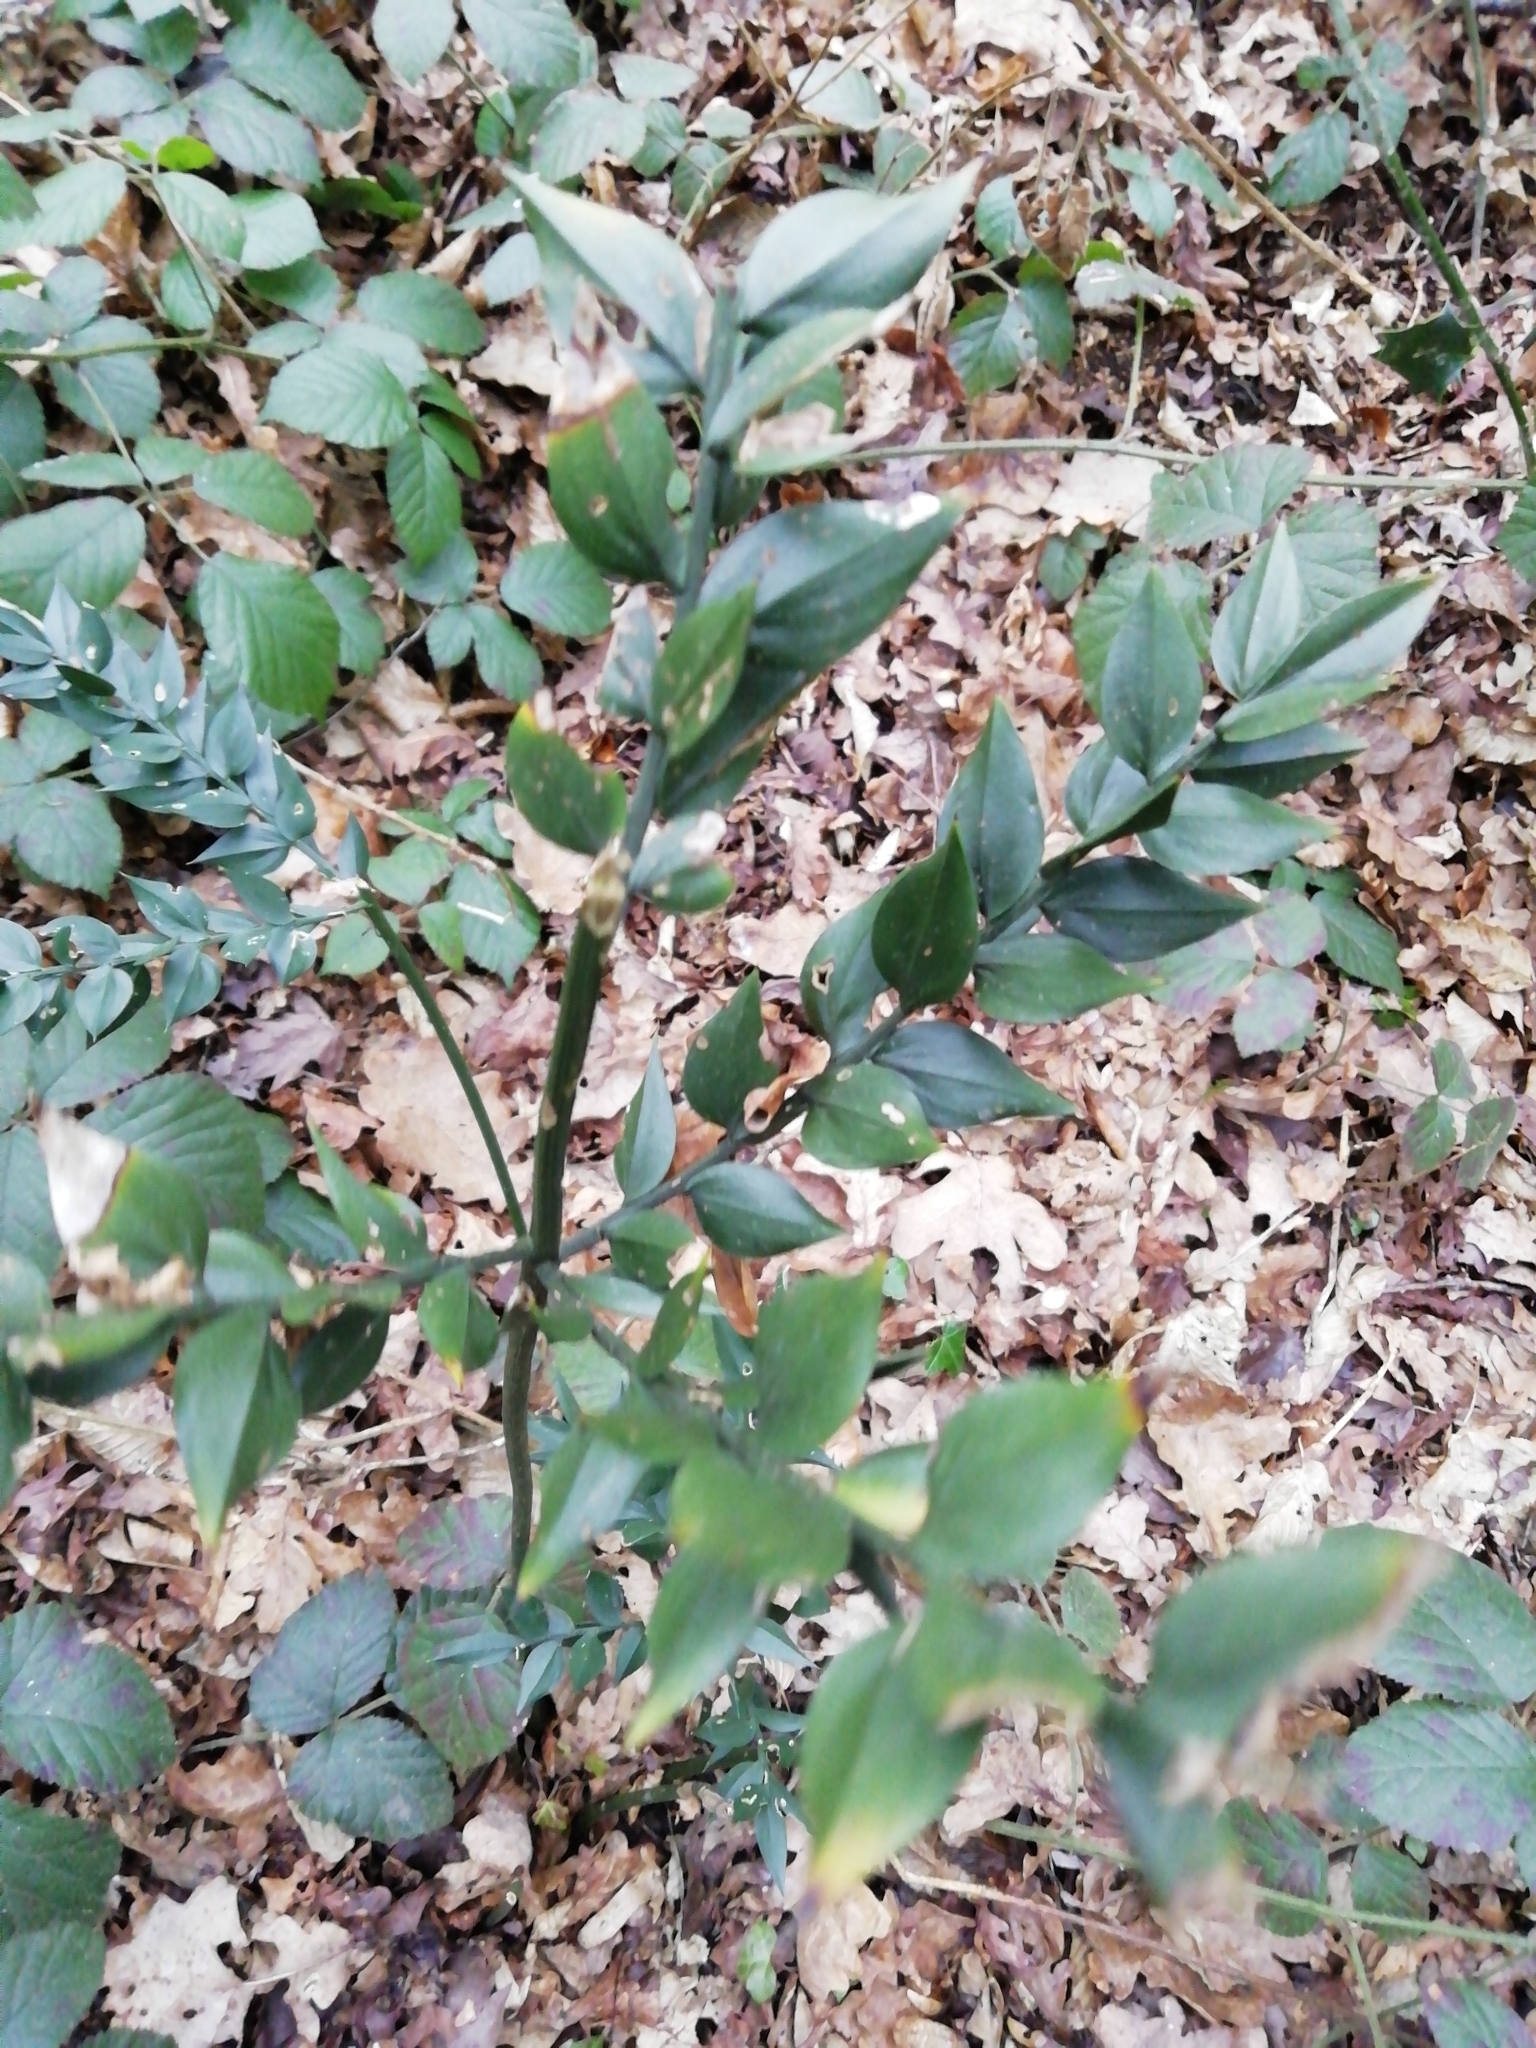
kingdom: Plantae
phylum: Tracheophyta
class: Liliopsida
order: Asparagales
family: Asparagaceae
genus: Ruscus
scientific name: Ruscus aculeatus
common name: Butcher's-broom
